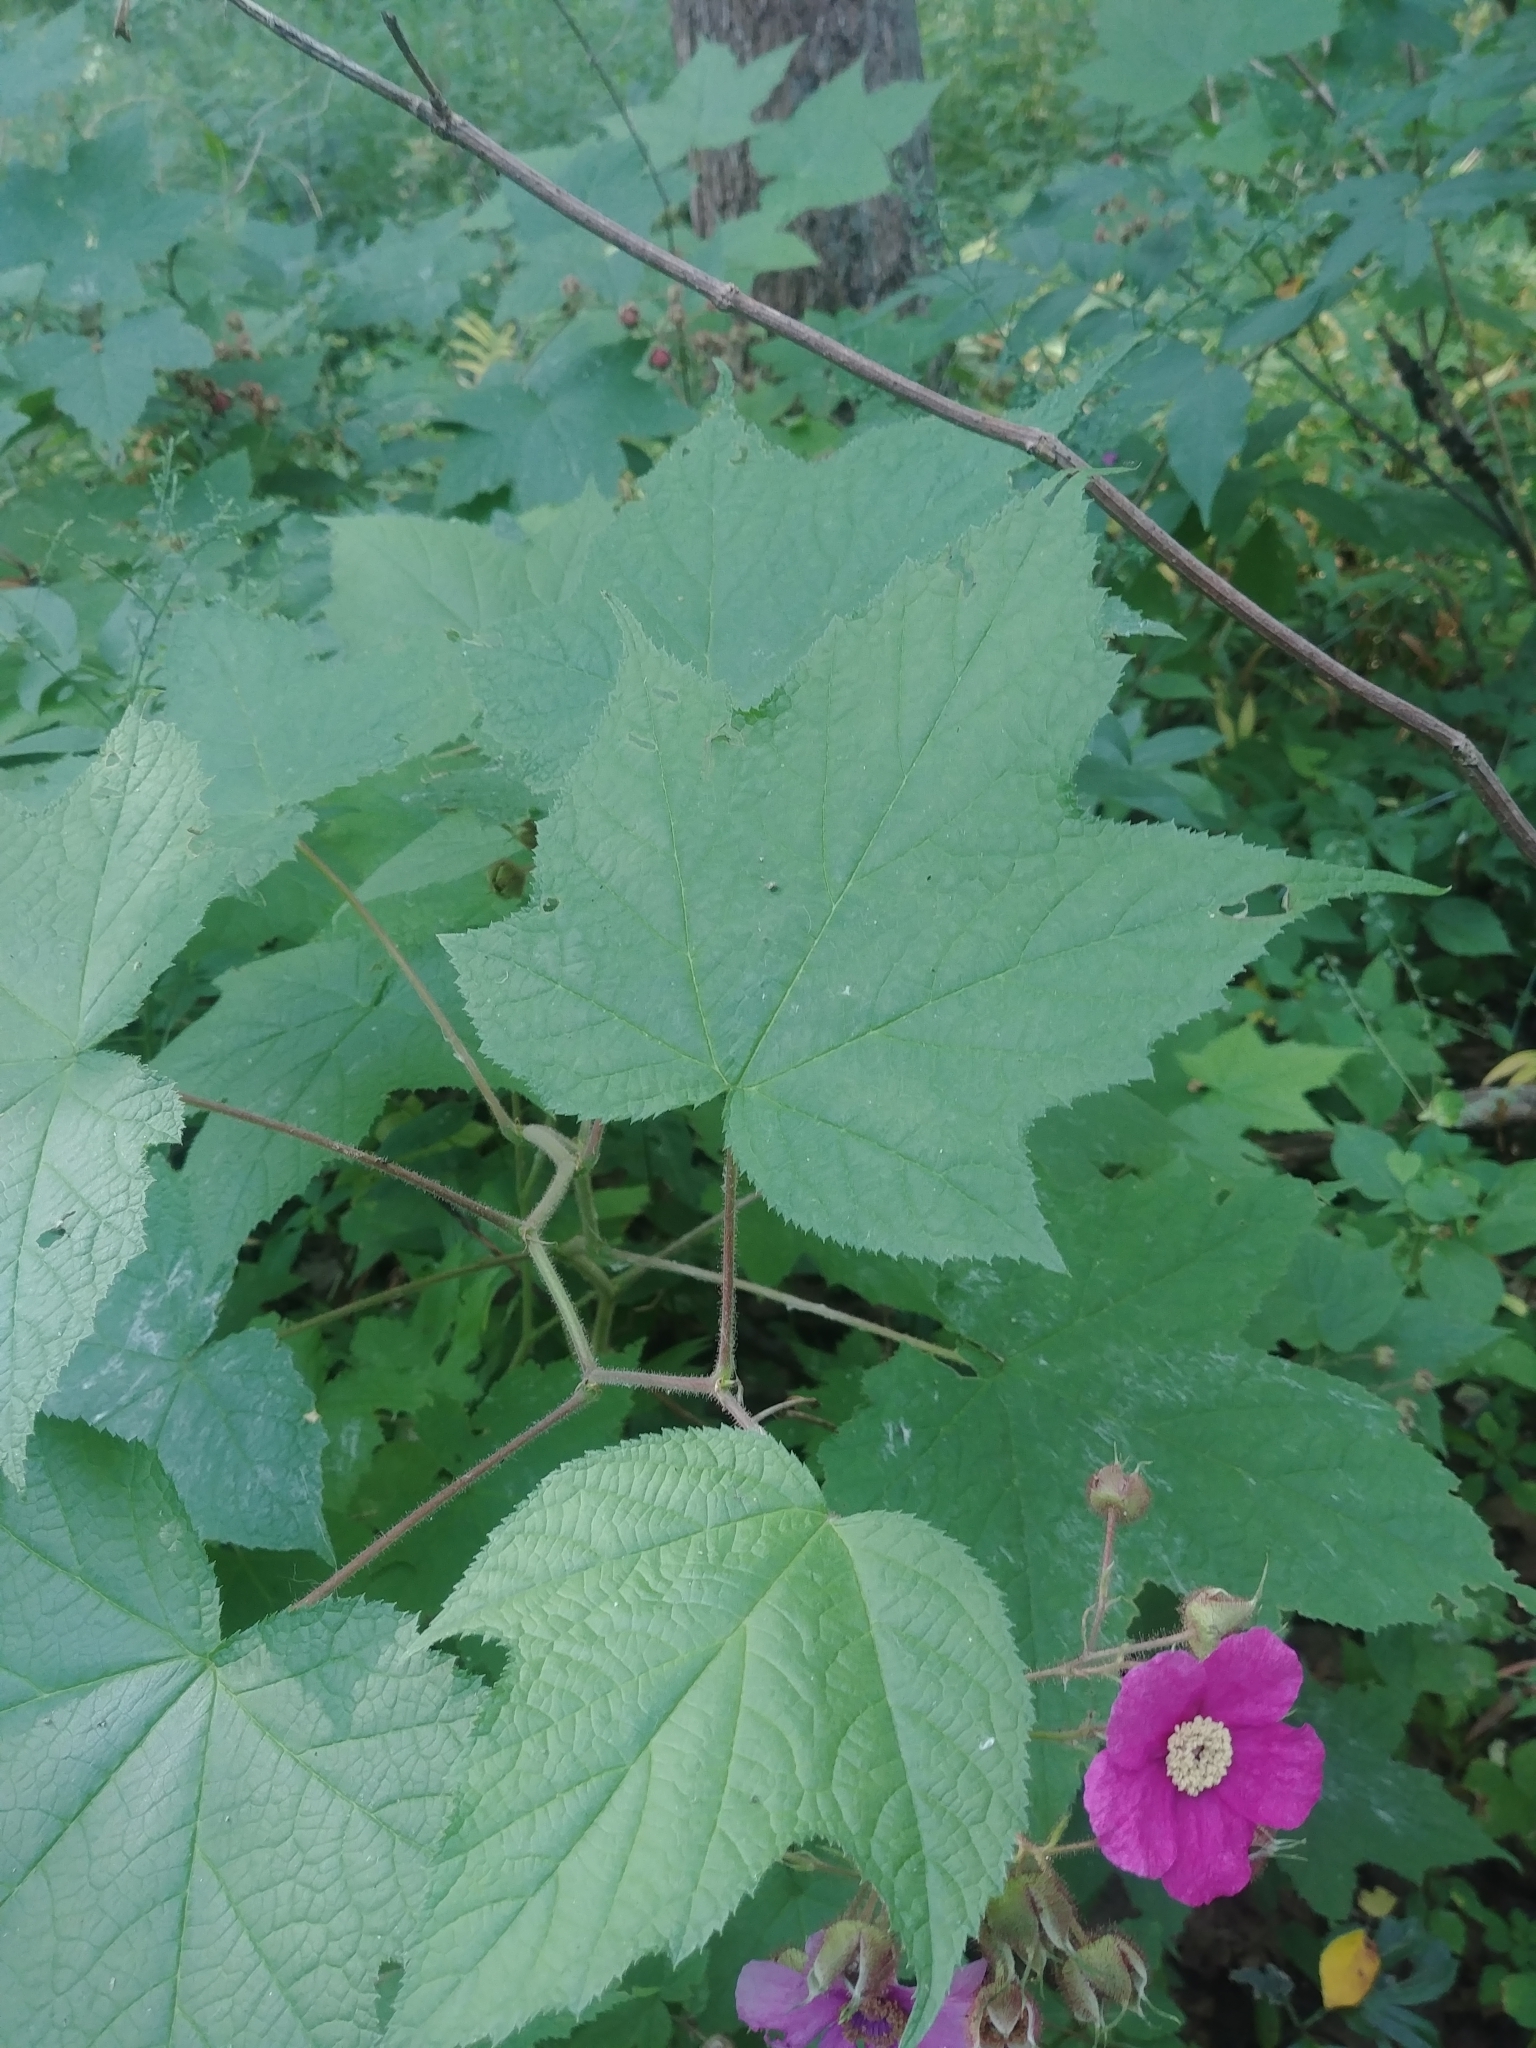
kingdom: Plantae
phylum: Tracheophyta
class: Magnoliopsida
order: Rosales
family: Rosaceae
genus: Rubus
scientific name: Rubus odoratus
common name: Purple-flowered raspberry
